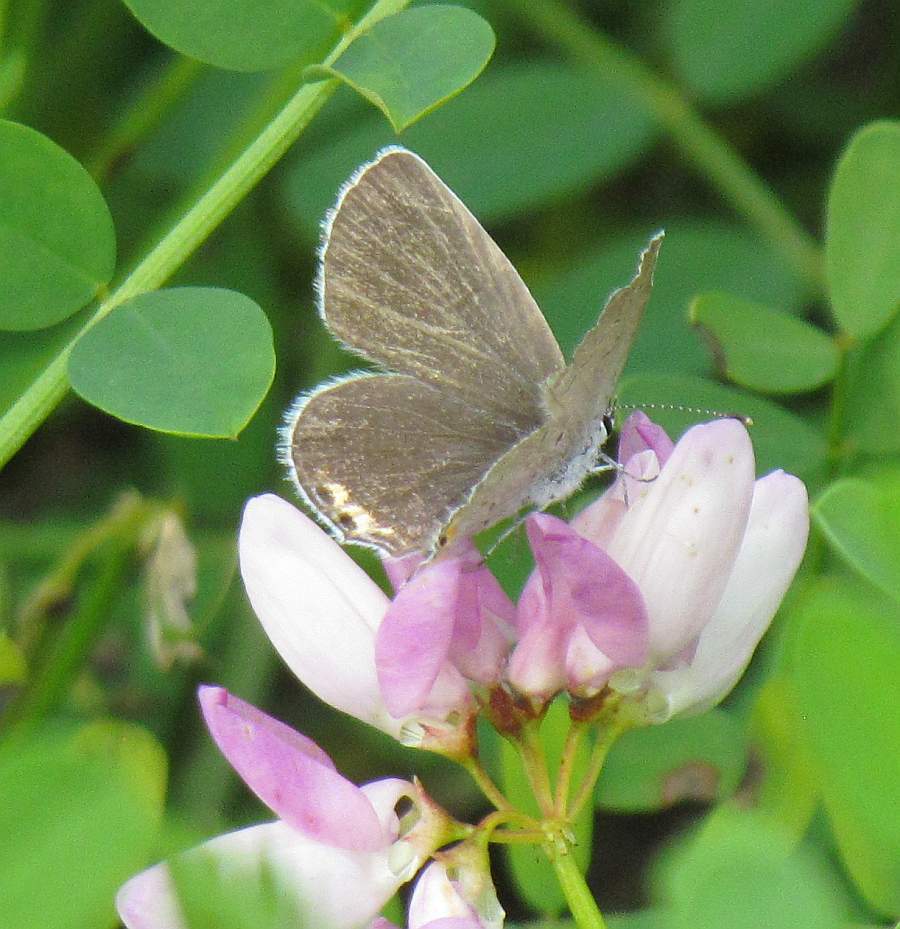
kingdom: Animalia
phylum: Arthropoda
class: Insecta
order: Lepidoptera
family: Lycaenidae
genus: Elkalyce
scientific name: Elkalyce comyntas
